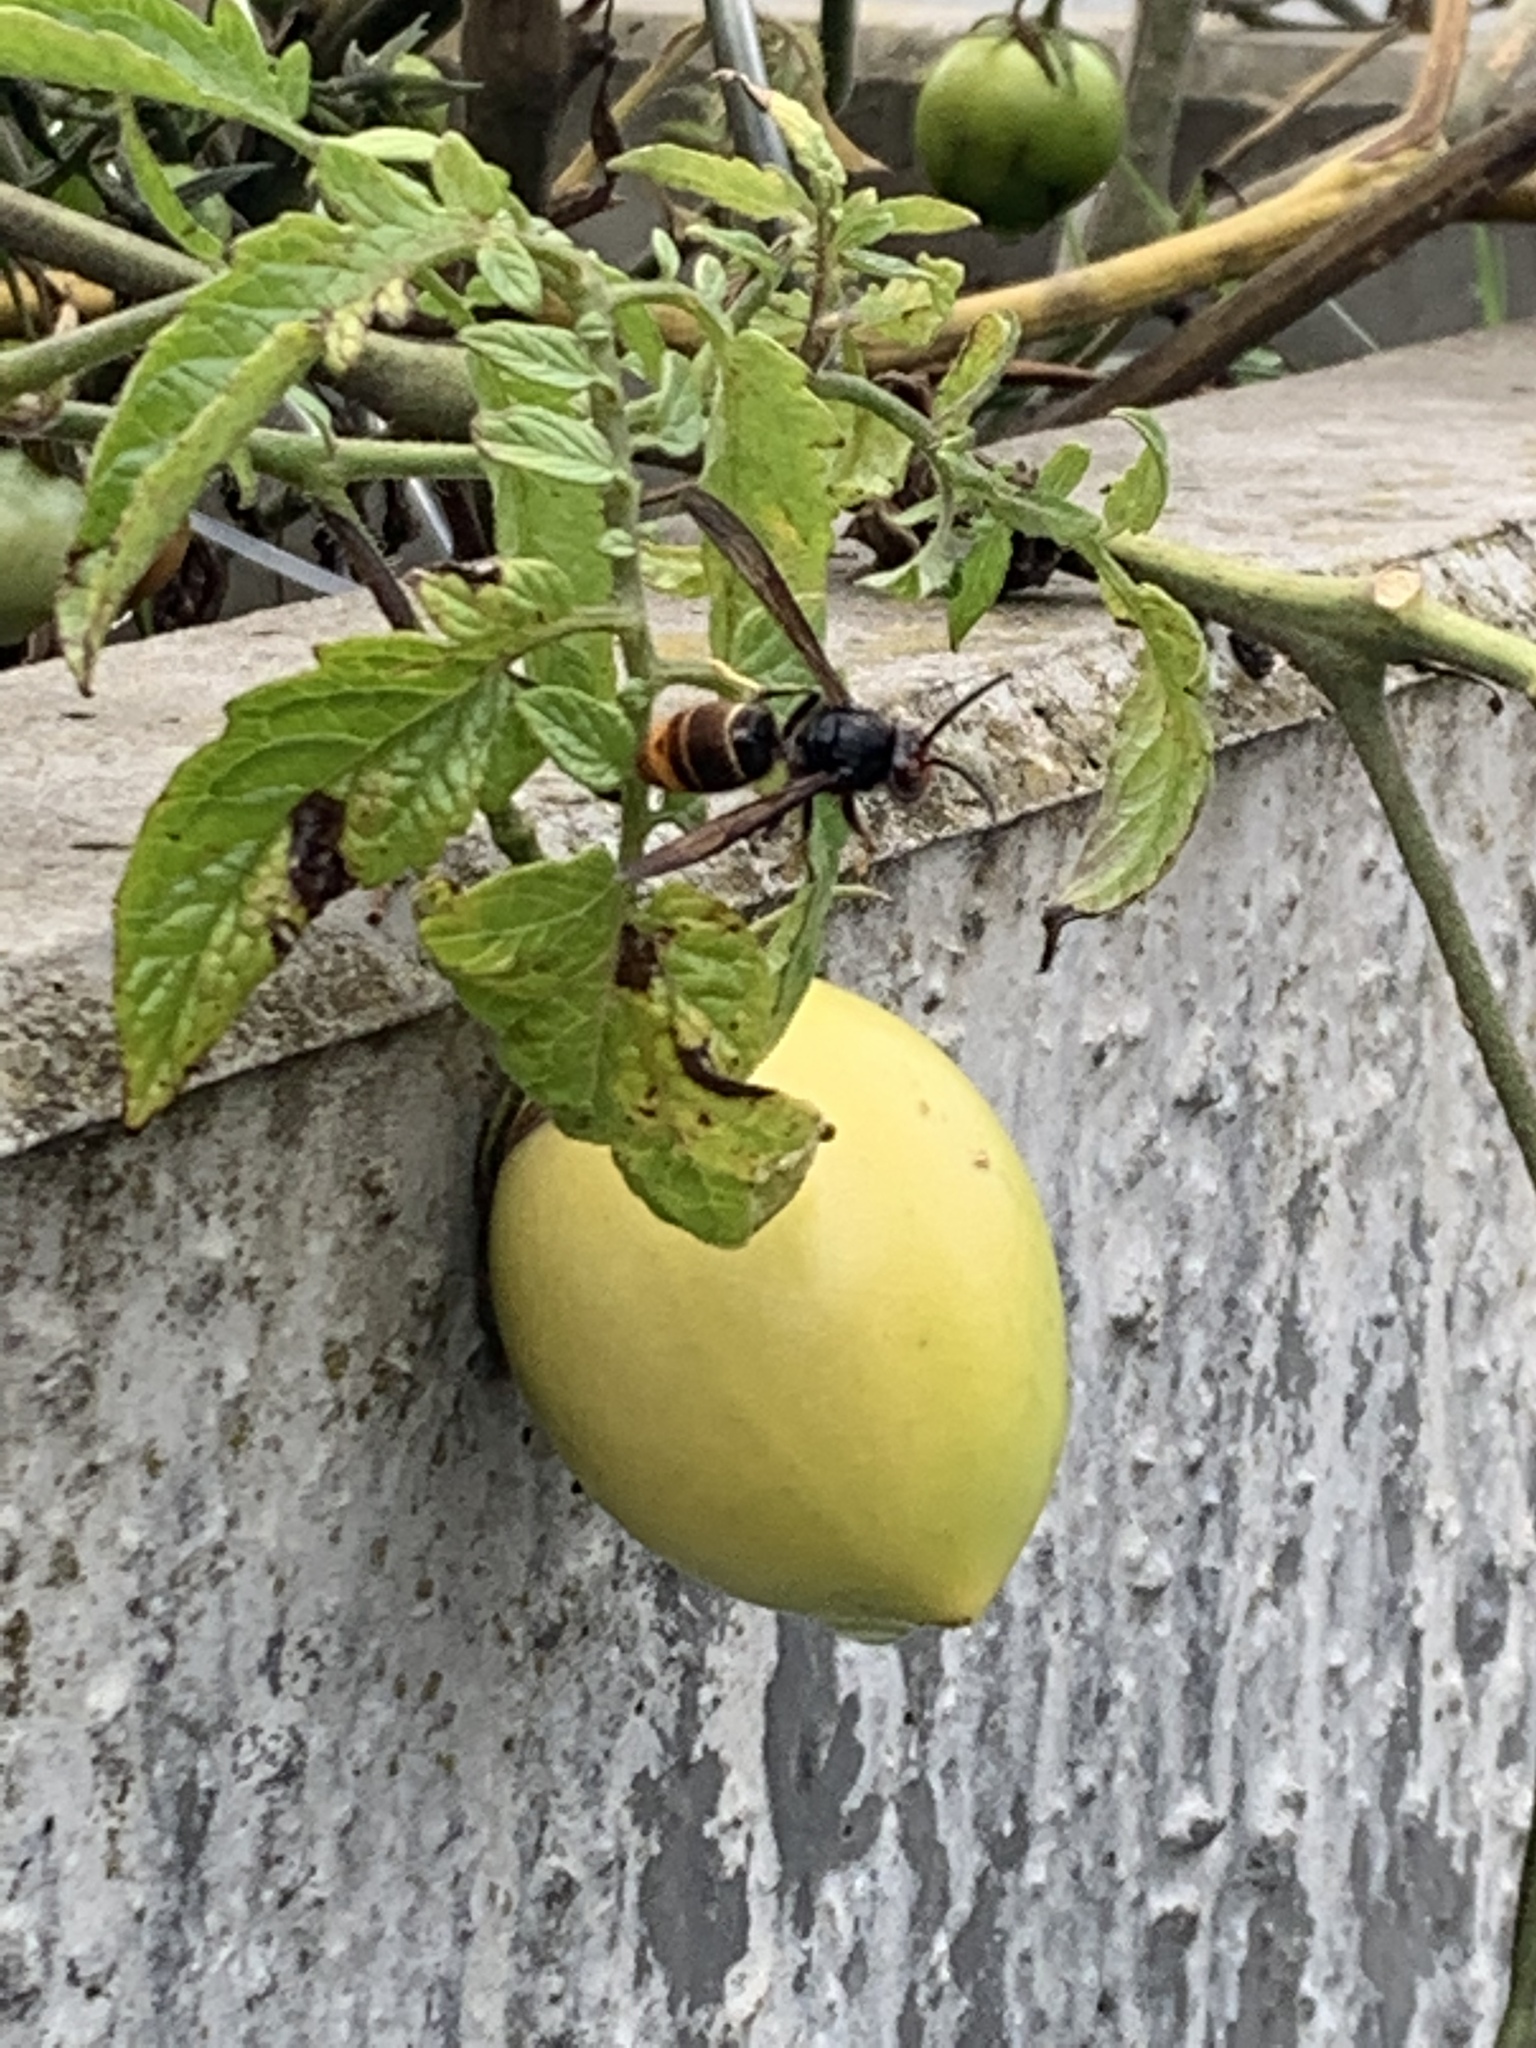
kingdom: Animalia
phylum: Arthropoda
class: Insecta
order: Hymenoptera
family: Vespidae
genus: Vespa
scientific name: Vespa velutina
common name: Asian hornet
